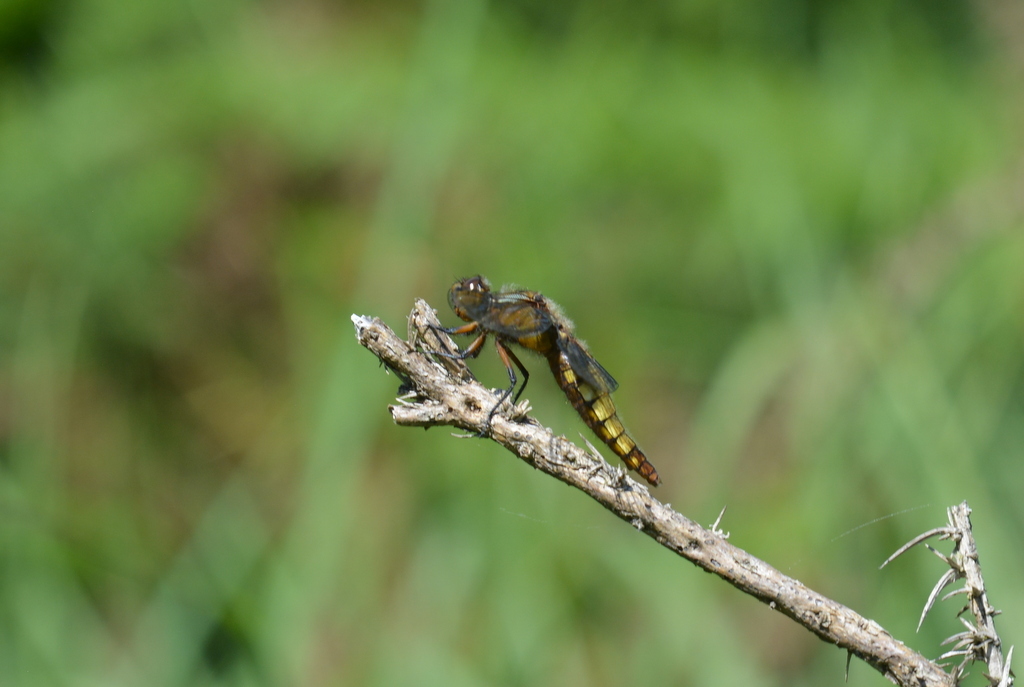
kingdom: Animalia
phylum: Arthropoda
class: Insecta
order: Odonata
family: Libellulidae
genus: Libellula
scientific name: Libellula depressa
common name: Broad-bodied chaser
